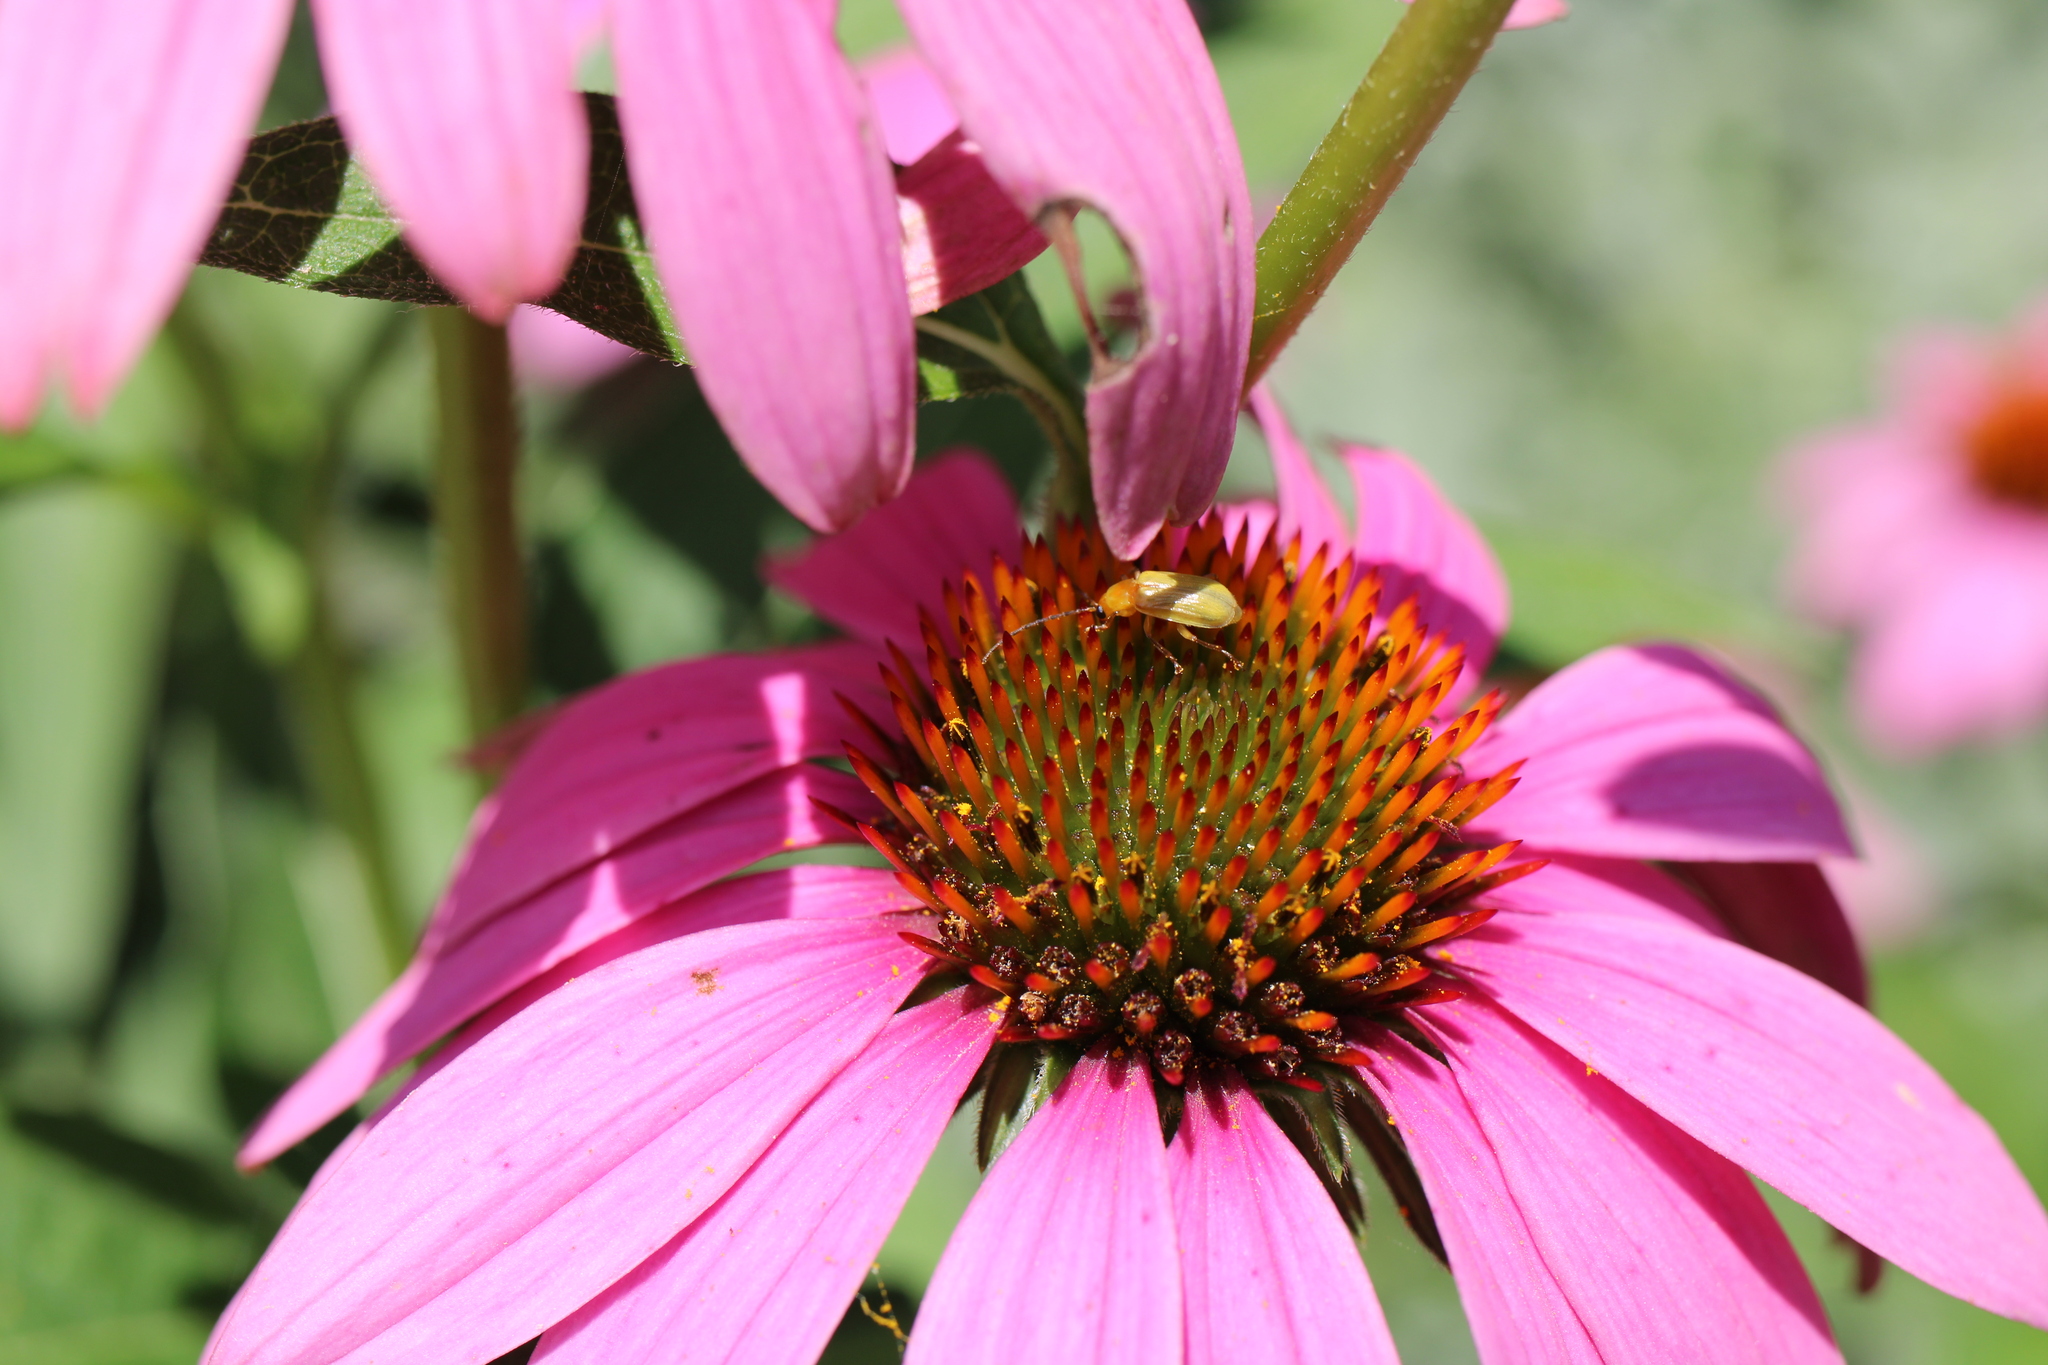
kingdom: Animalia
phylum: Arthropoda
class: Insecta
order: Coleoptera
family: Chrysomelidae
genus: Diabrotica
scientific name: Diabrotica barberi
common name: Northern corn rootworm
